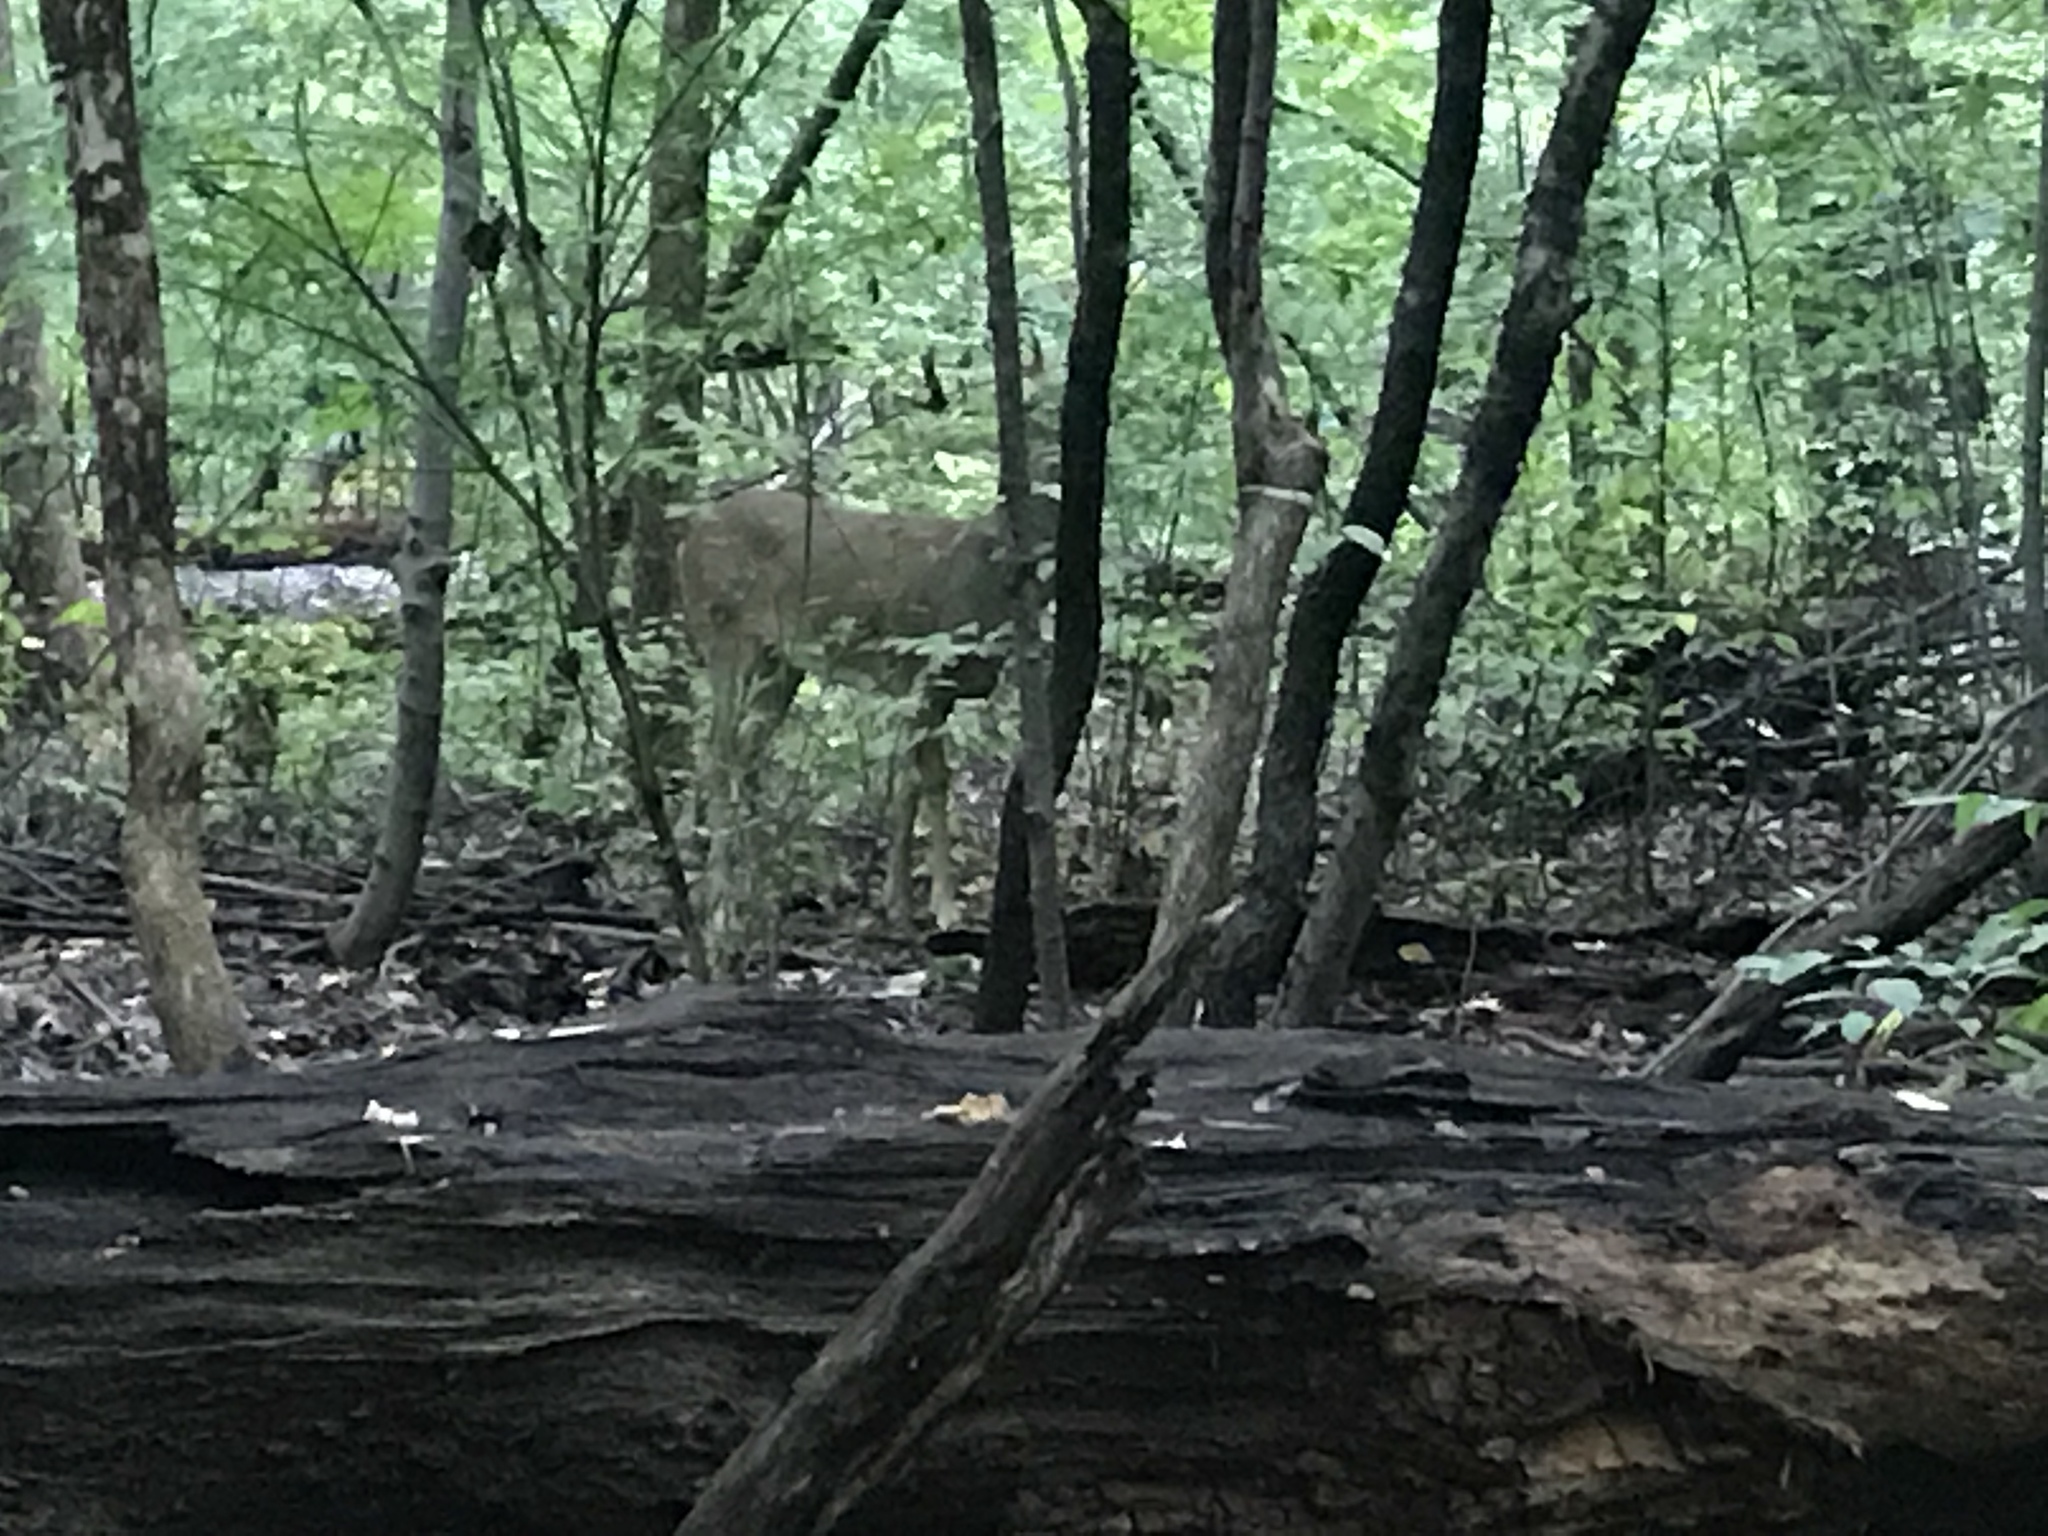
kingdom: Animalia
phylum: Chordata
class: Mammalia
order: Artiodactyla
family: Cervidae
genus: Odocoileus
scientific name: Odocoileus virginianus
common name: White-tailed deer
